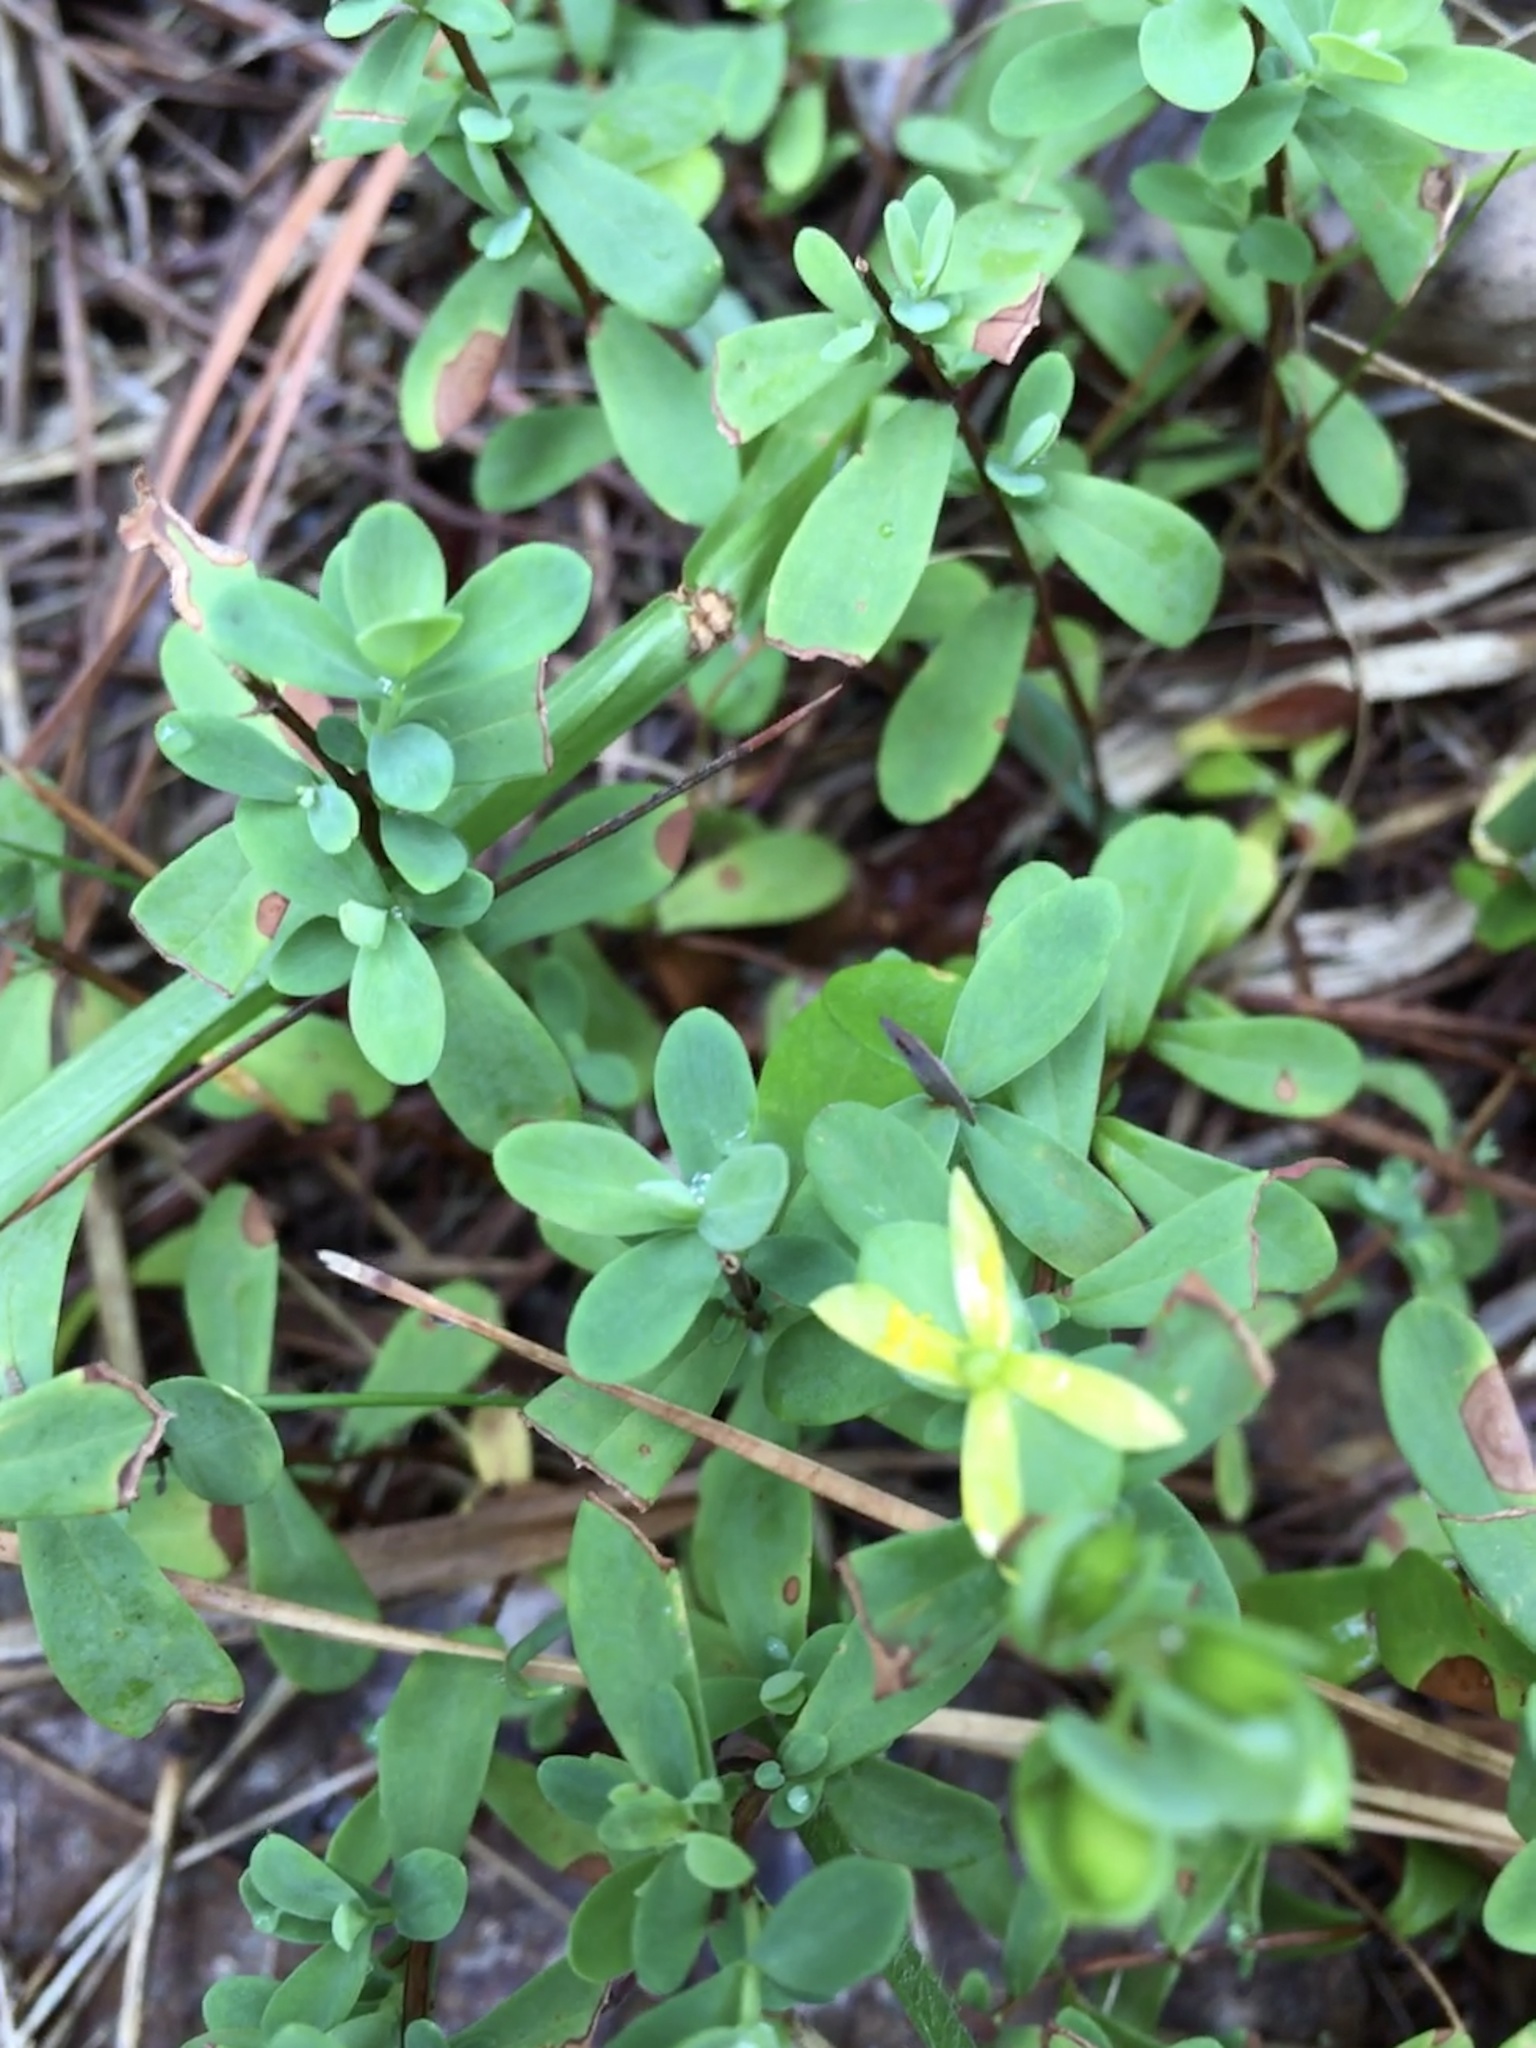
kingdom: Plantae
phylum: Tracheophyta
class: Magnoliopsida
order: Malpighiales
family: Hypericaceae
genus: Hypericum
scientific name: Hypericum hypericoides
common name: St. andrew's cross
